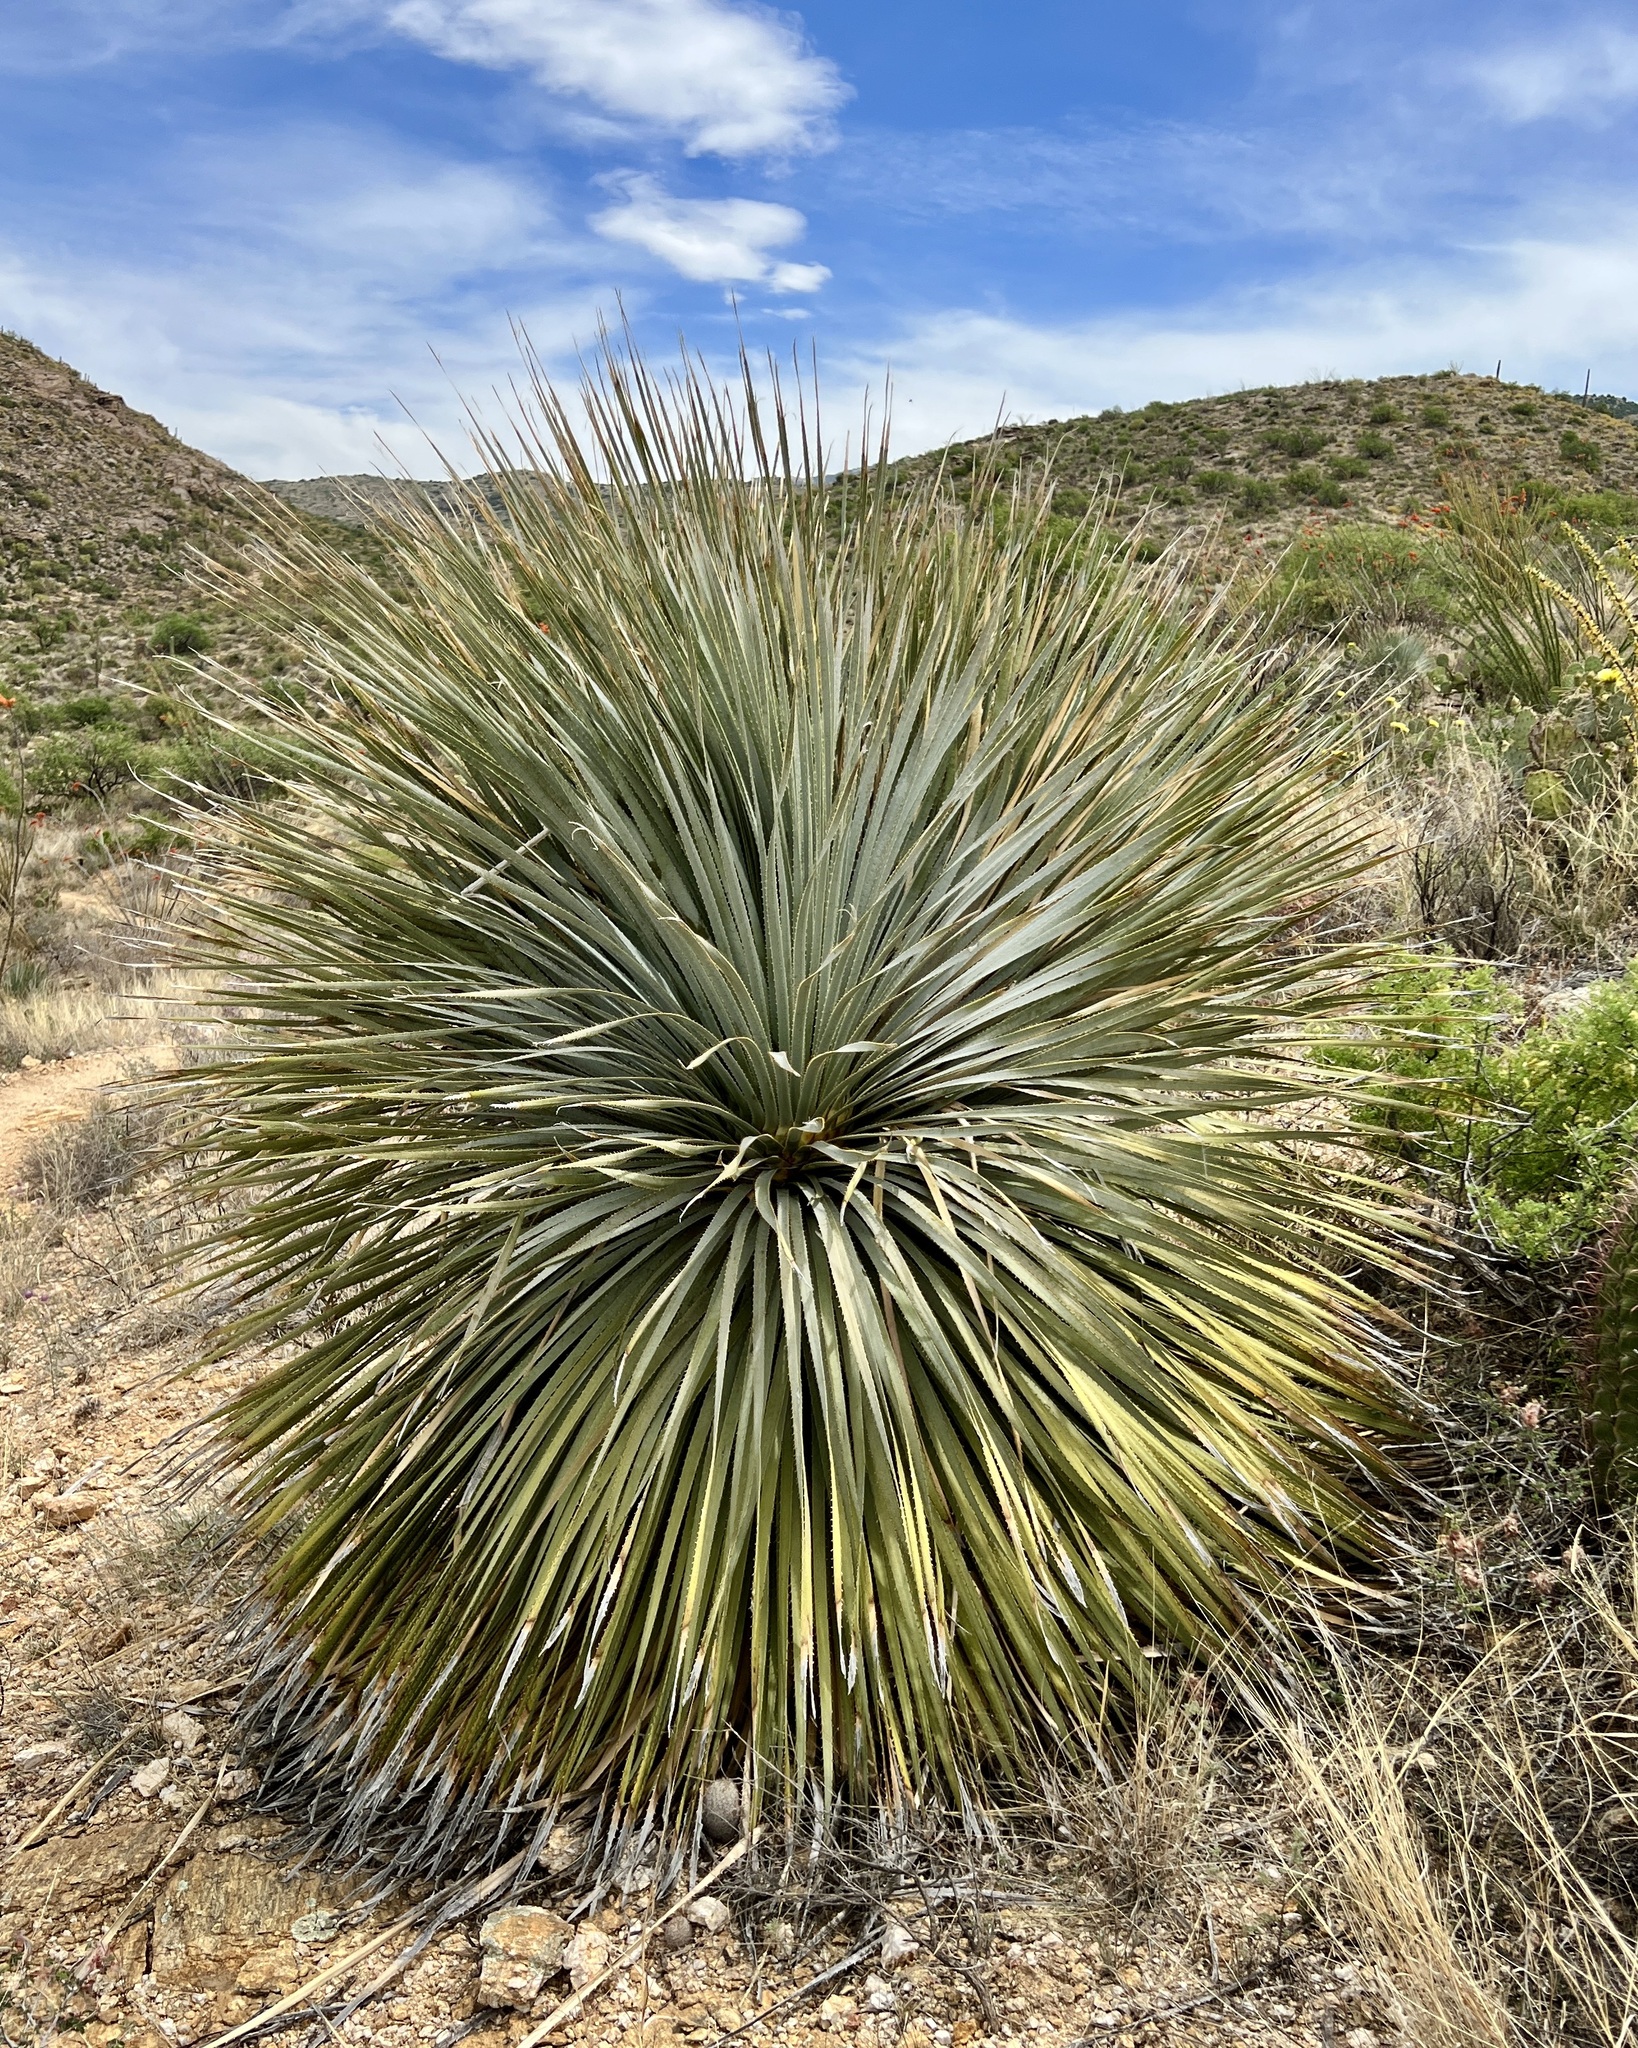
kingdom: Plantae
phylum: Tracheophyta
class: Liliopsida
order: Asparagales
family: Asparagaceae
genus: Dasylirion
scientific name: Dasylirion wheeleri
